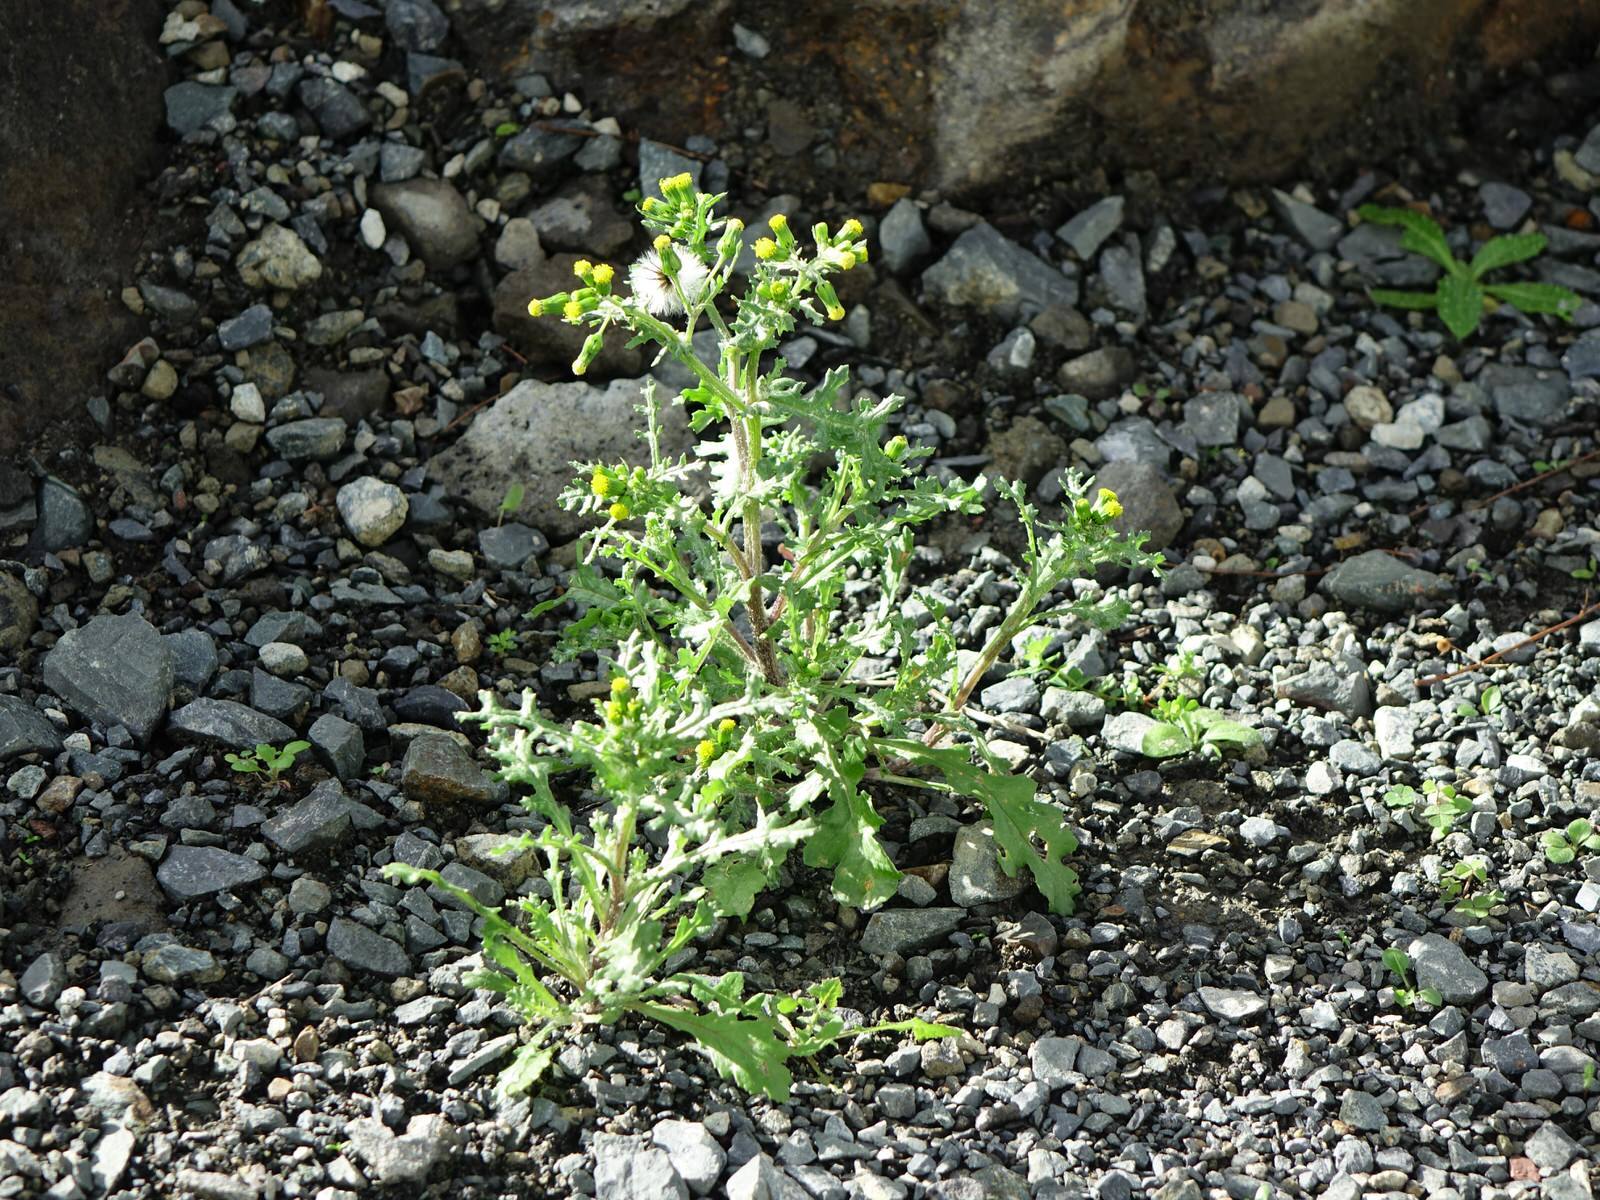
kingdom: Plantae
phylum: Tracheophyta
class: Magnoliopsida
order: Asterales
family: Asteraceae
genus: Senecio
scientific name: Senecio vulgaris
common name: Old-man-in-the-spring
